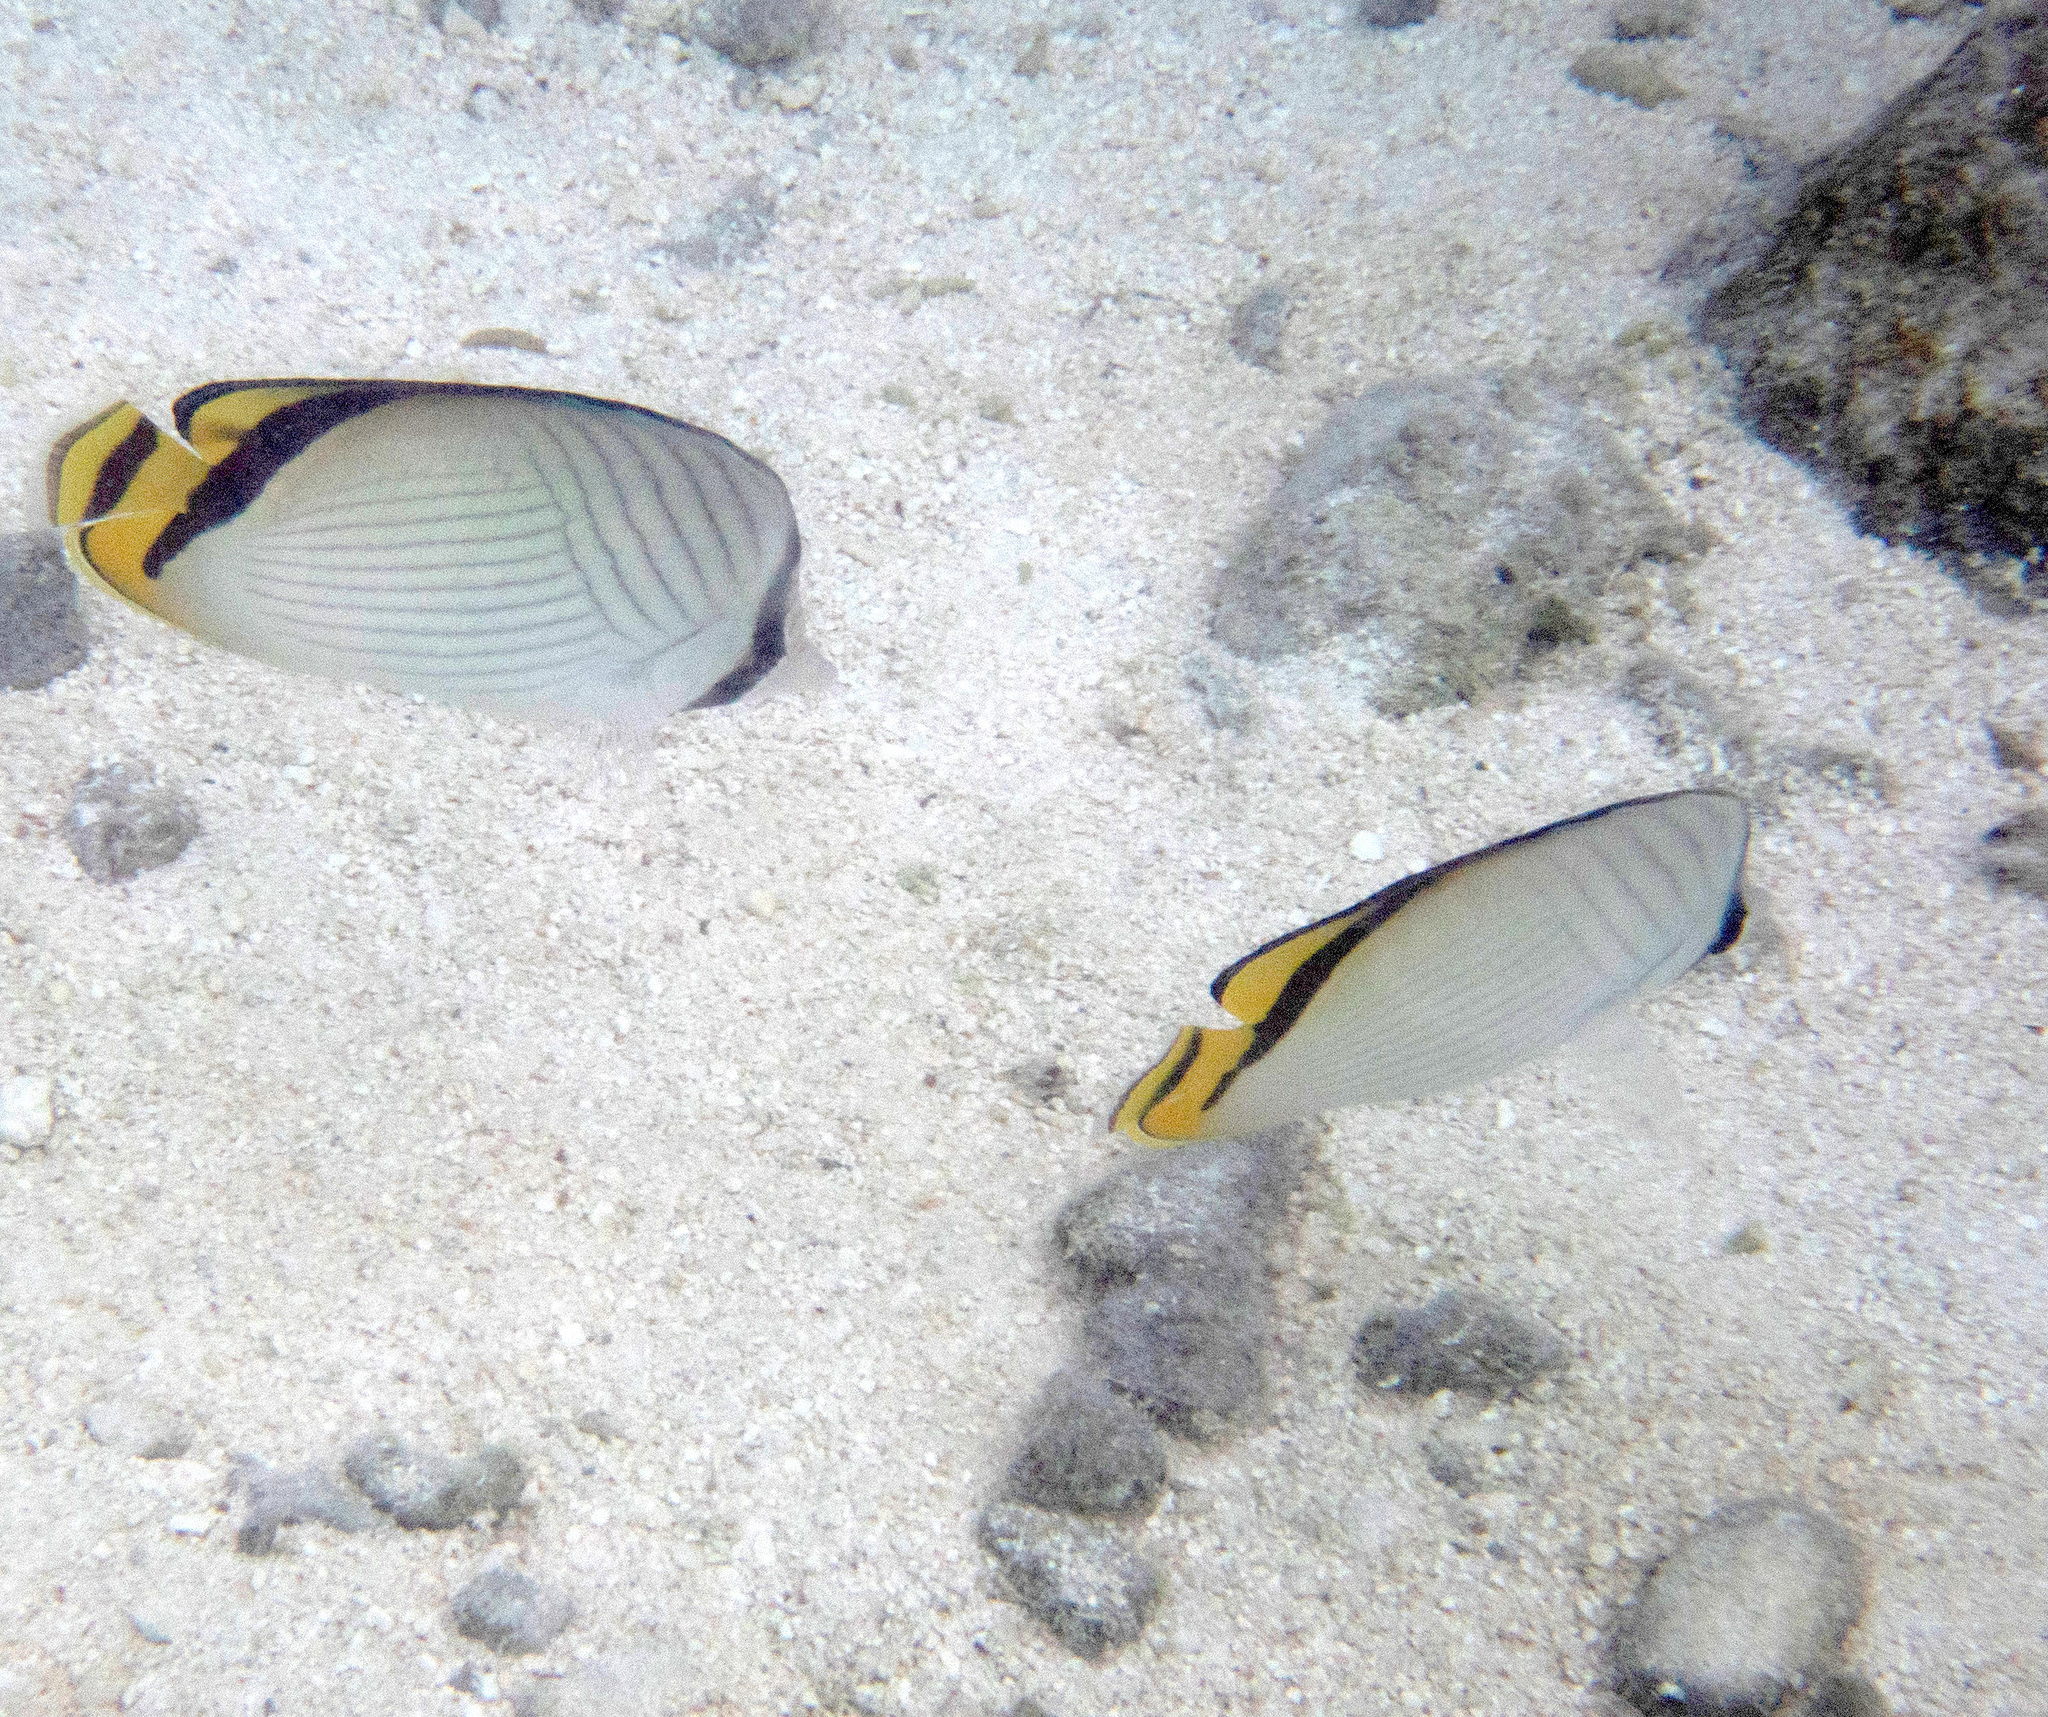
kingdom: Animalia
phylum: Chordata
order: Perciformes
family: Chaetodontidae
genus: Chaetodon
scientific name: Chaetodon vagabundus
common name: Vagabond butterflyfish
